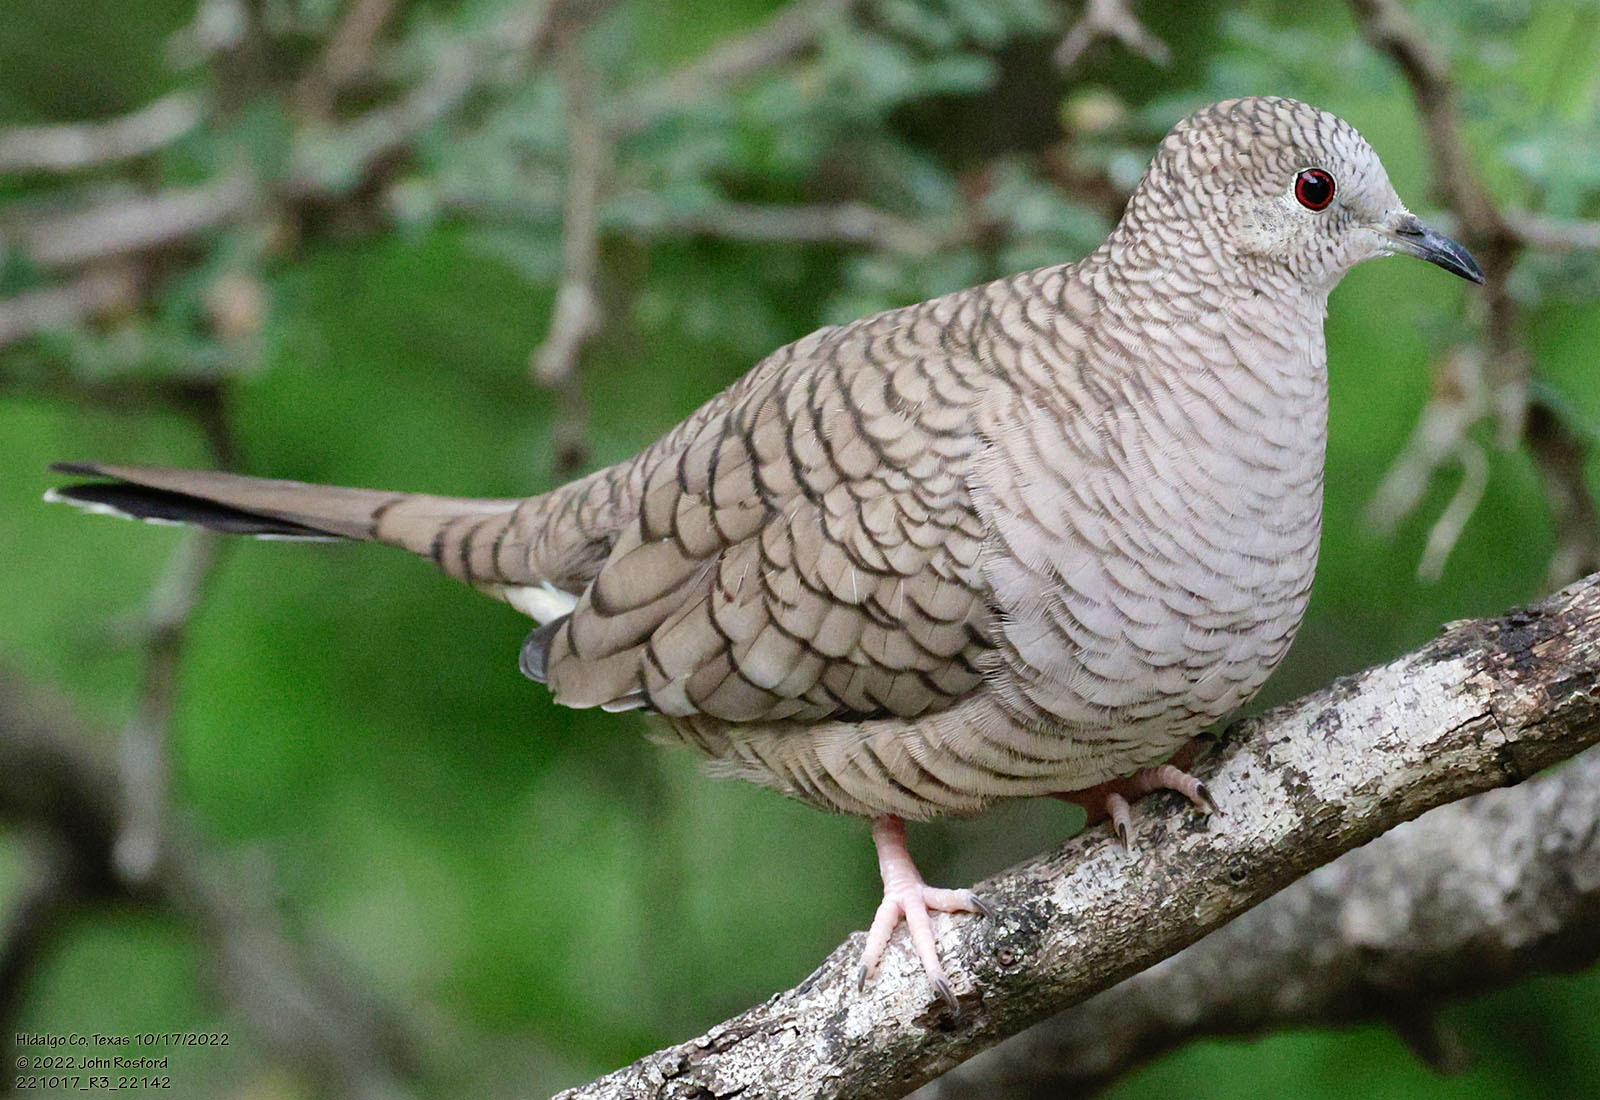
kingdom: Animalia
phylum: Chordata
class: Aves
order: Columbiformes
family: Columbidae
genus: Columbina
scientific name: Columbina inca
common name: Inca dove
